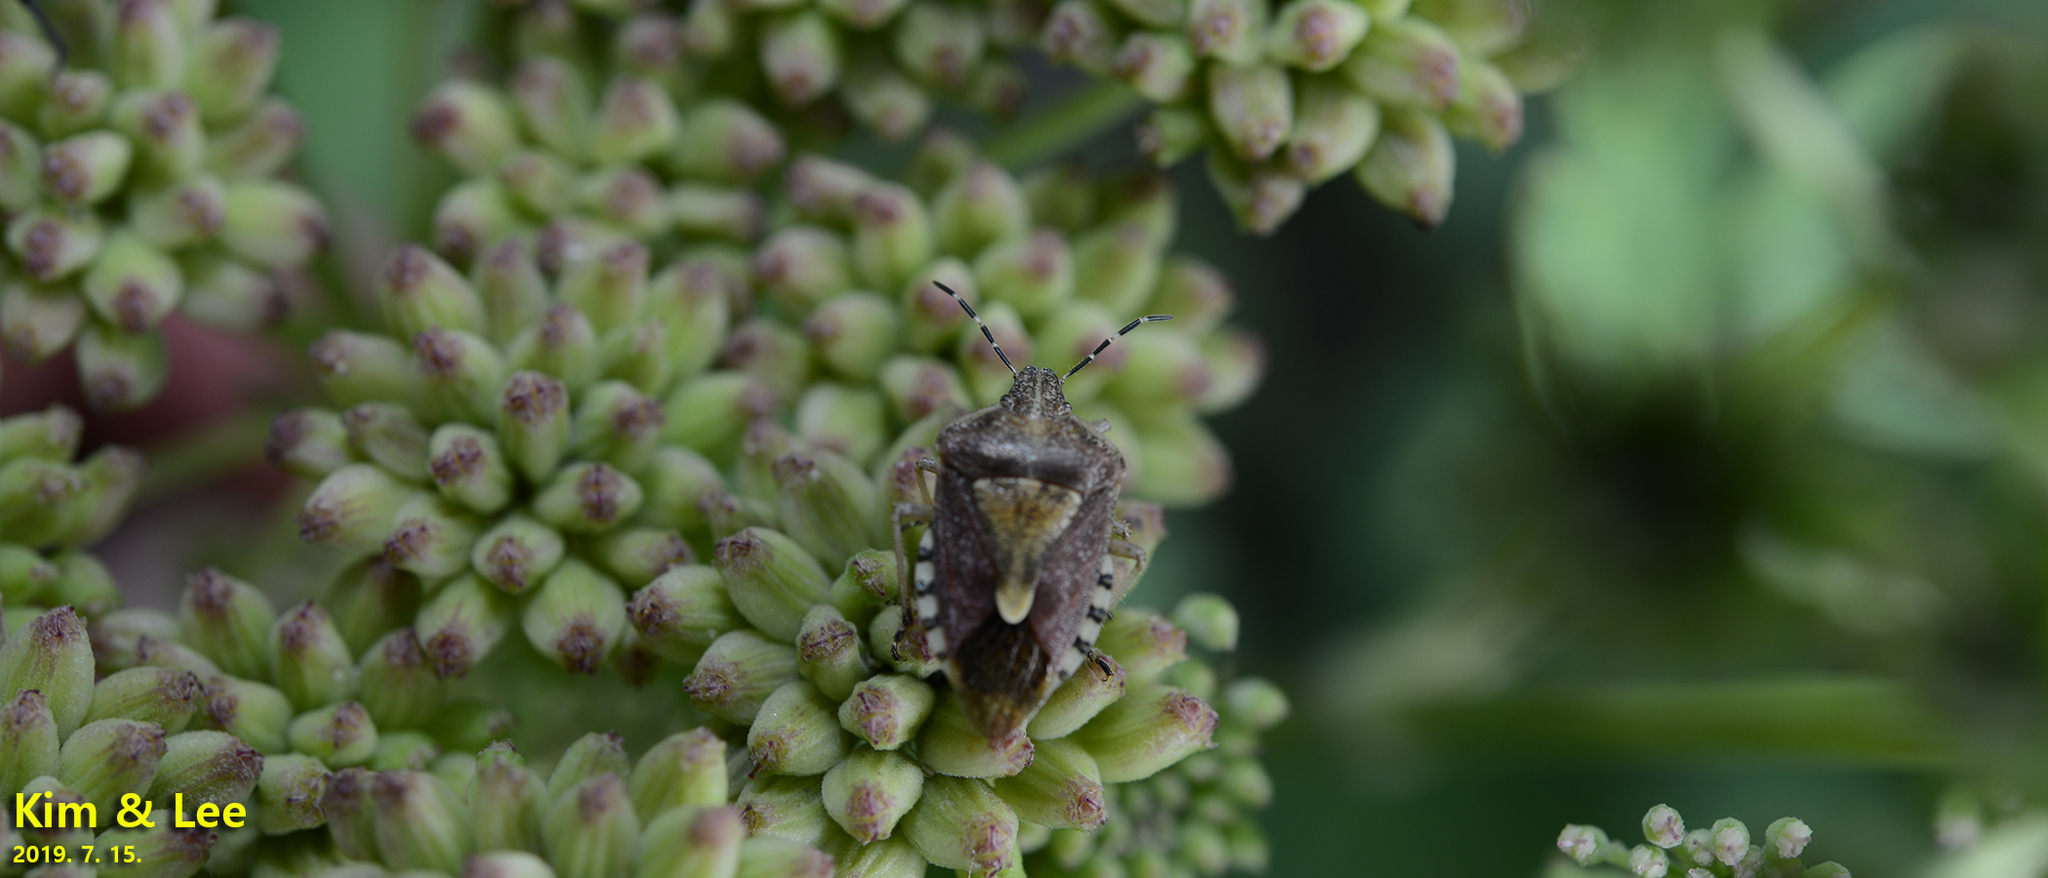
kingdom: Animalia
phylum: Arthropoda
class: Insecta
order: Hemiptera
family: Pentatomidae
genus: Dolycoris
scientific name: Dolycoris baccarum
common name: Sloe bug
